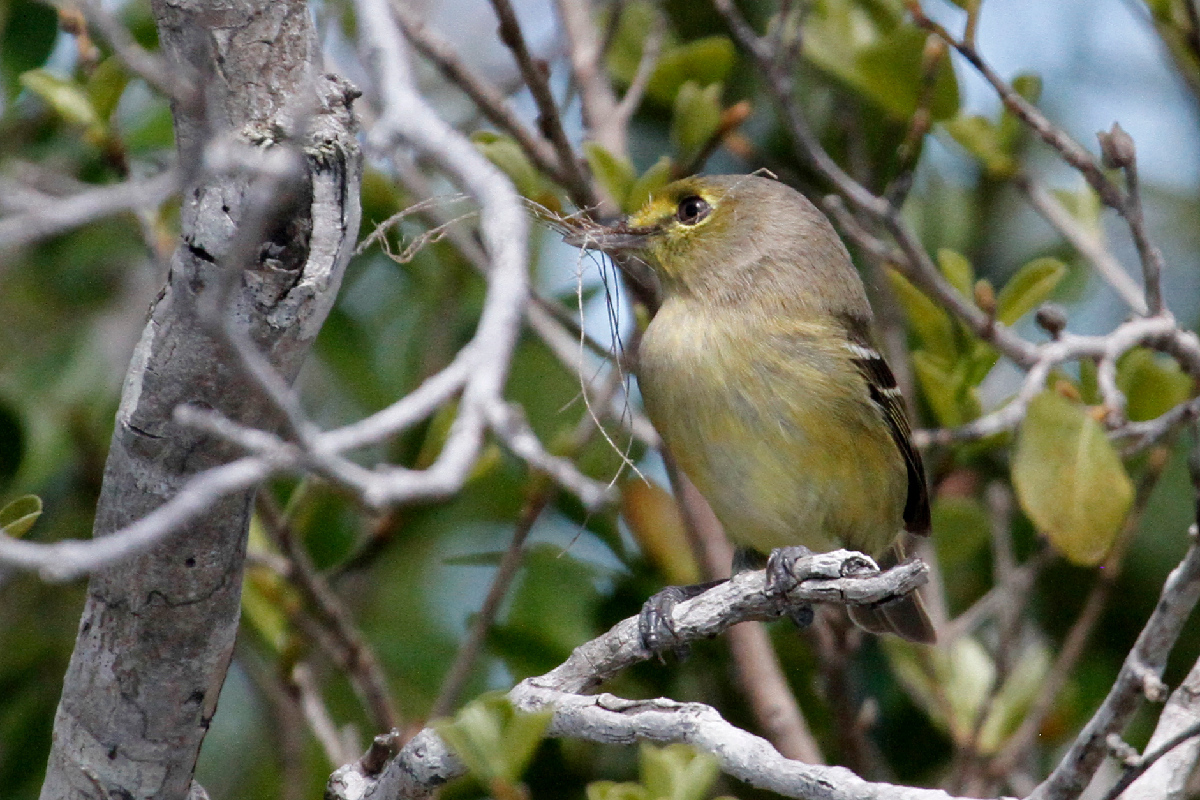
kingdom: Animalia
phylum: Chordata
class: Aves
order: Passeriformes
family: Vireonidae
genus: Vireo
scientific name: Vireo crassirostris
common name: Thick-billed vireo
